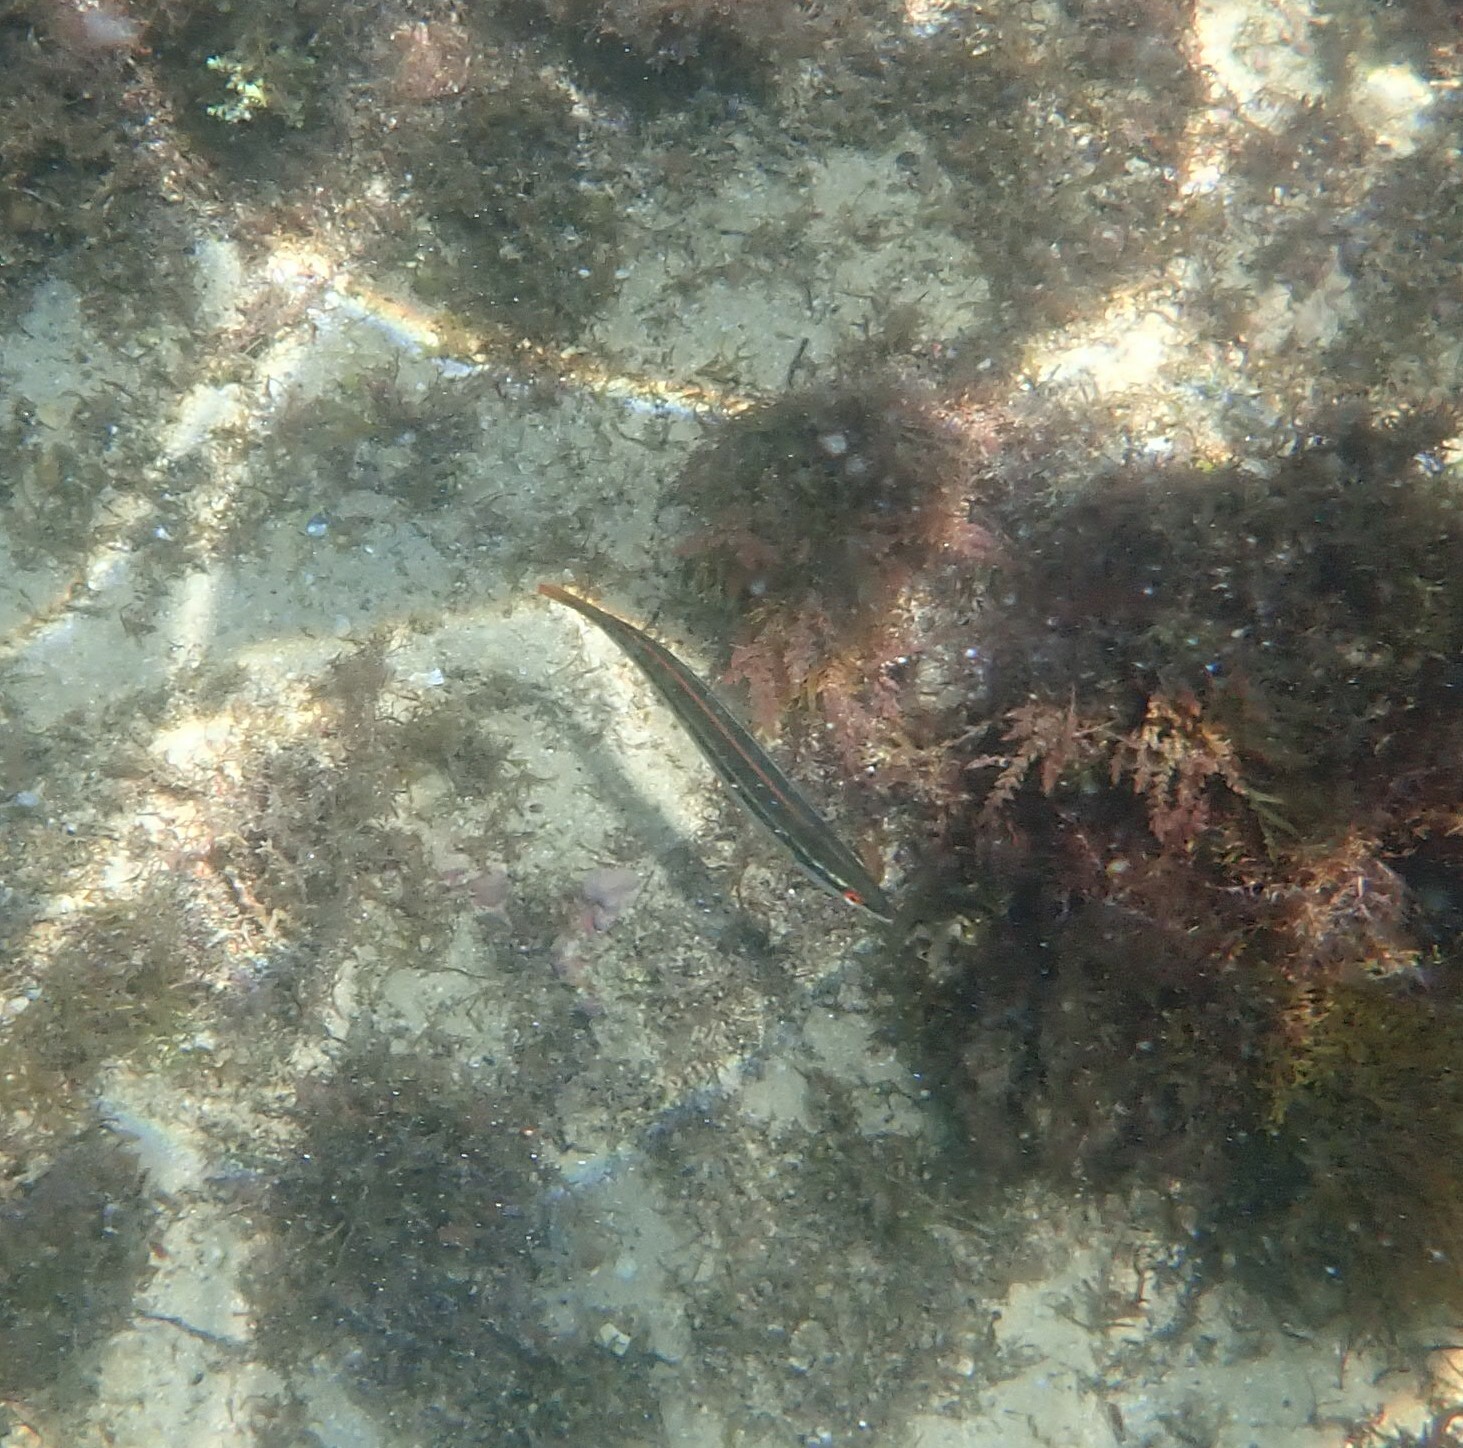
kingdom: Animalia
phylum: Chordata
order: Perciformes
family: Labridae
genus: Coris
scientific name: Coris
